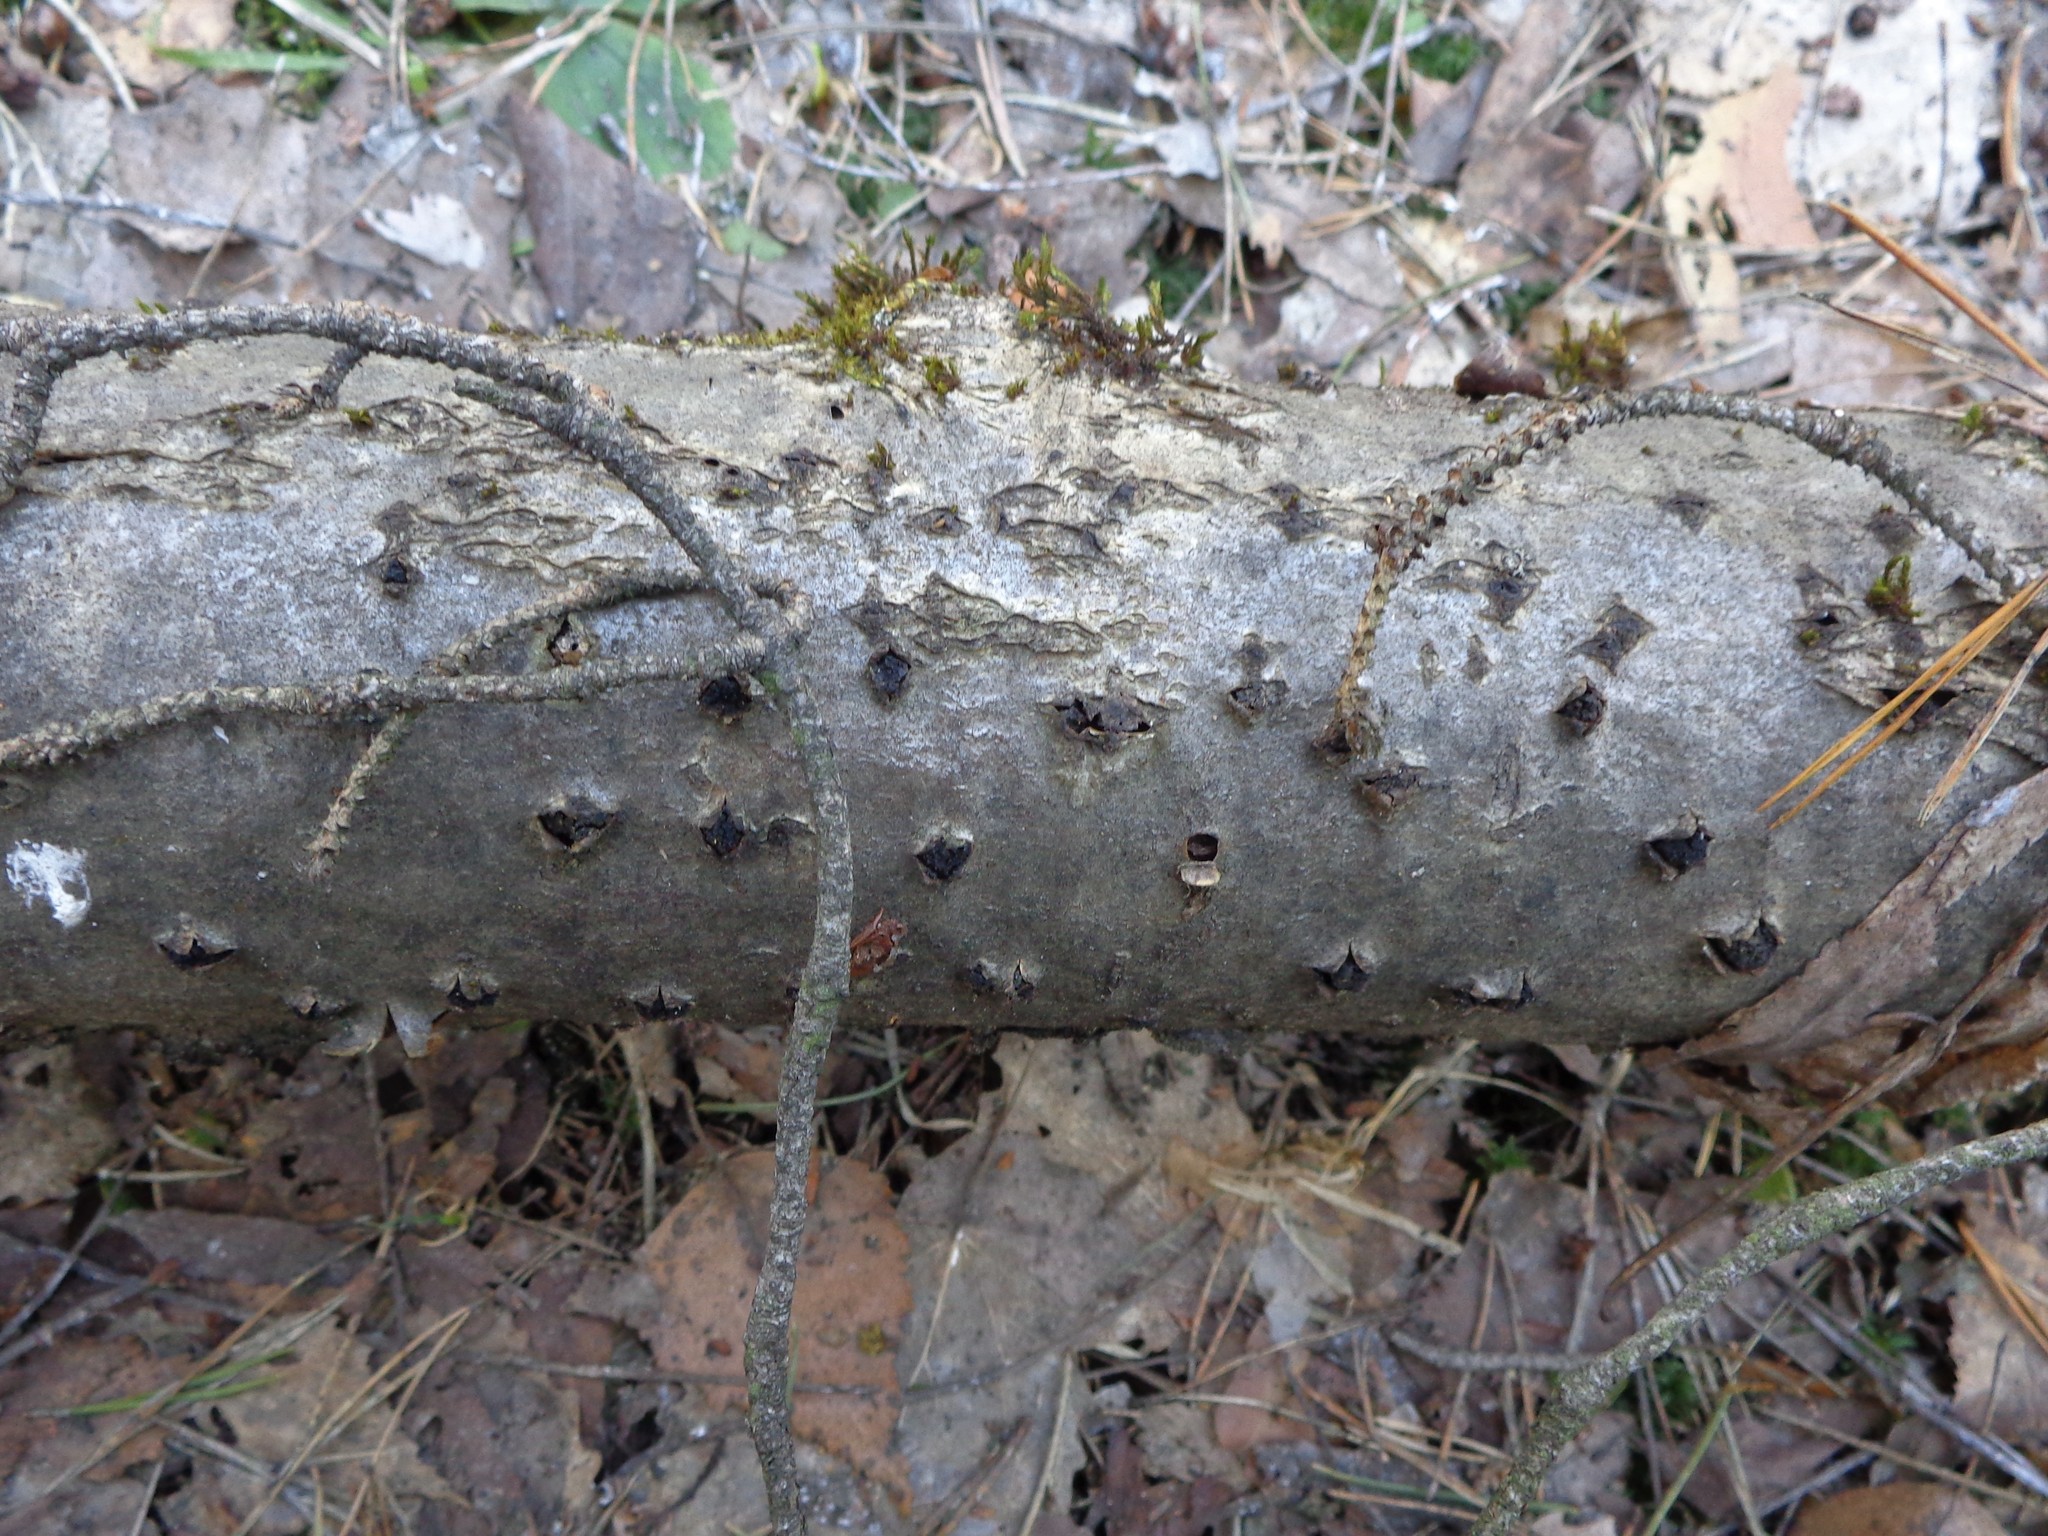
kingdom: Fungi
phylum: Ascomycota
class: Sordariomycetes
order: Xylariales
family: Diatrypaceae
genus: Eutypella
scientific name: Eutypella sorbi
